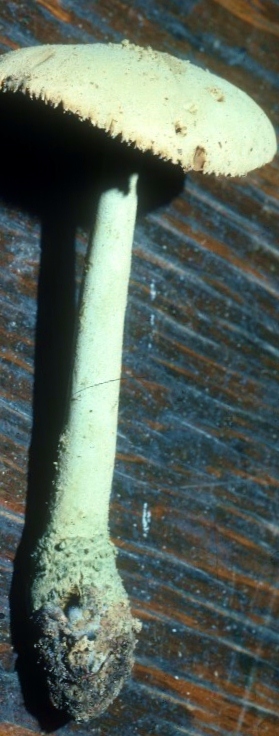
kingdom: Fungi
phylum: Basidiomycota
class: Agaricomycetes
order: Agaricales
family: Amanitaceae
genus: Amanita
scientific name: Amanita pelioma
